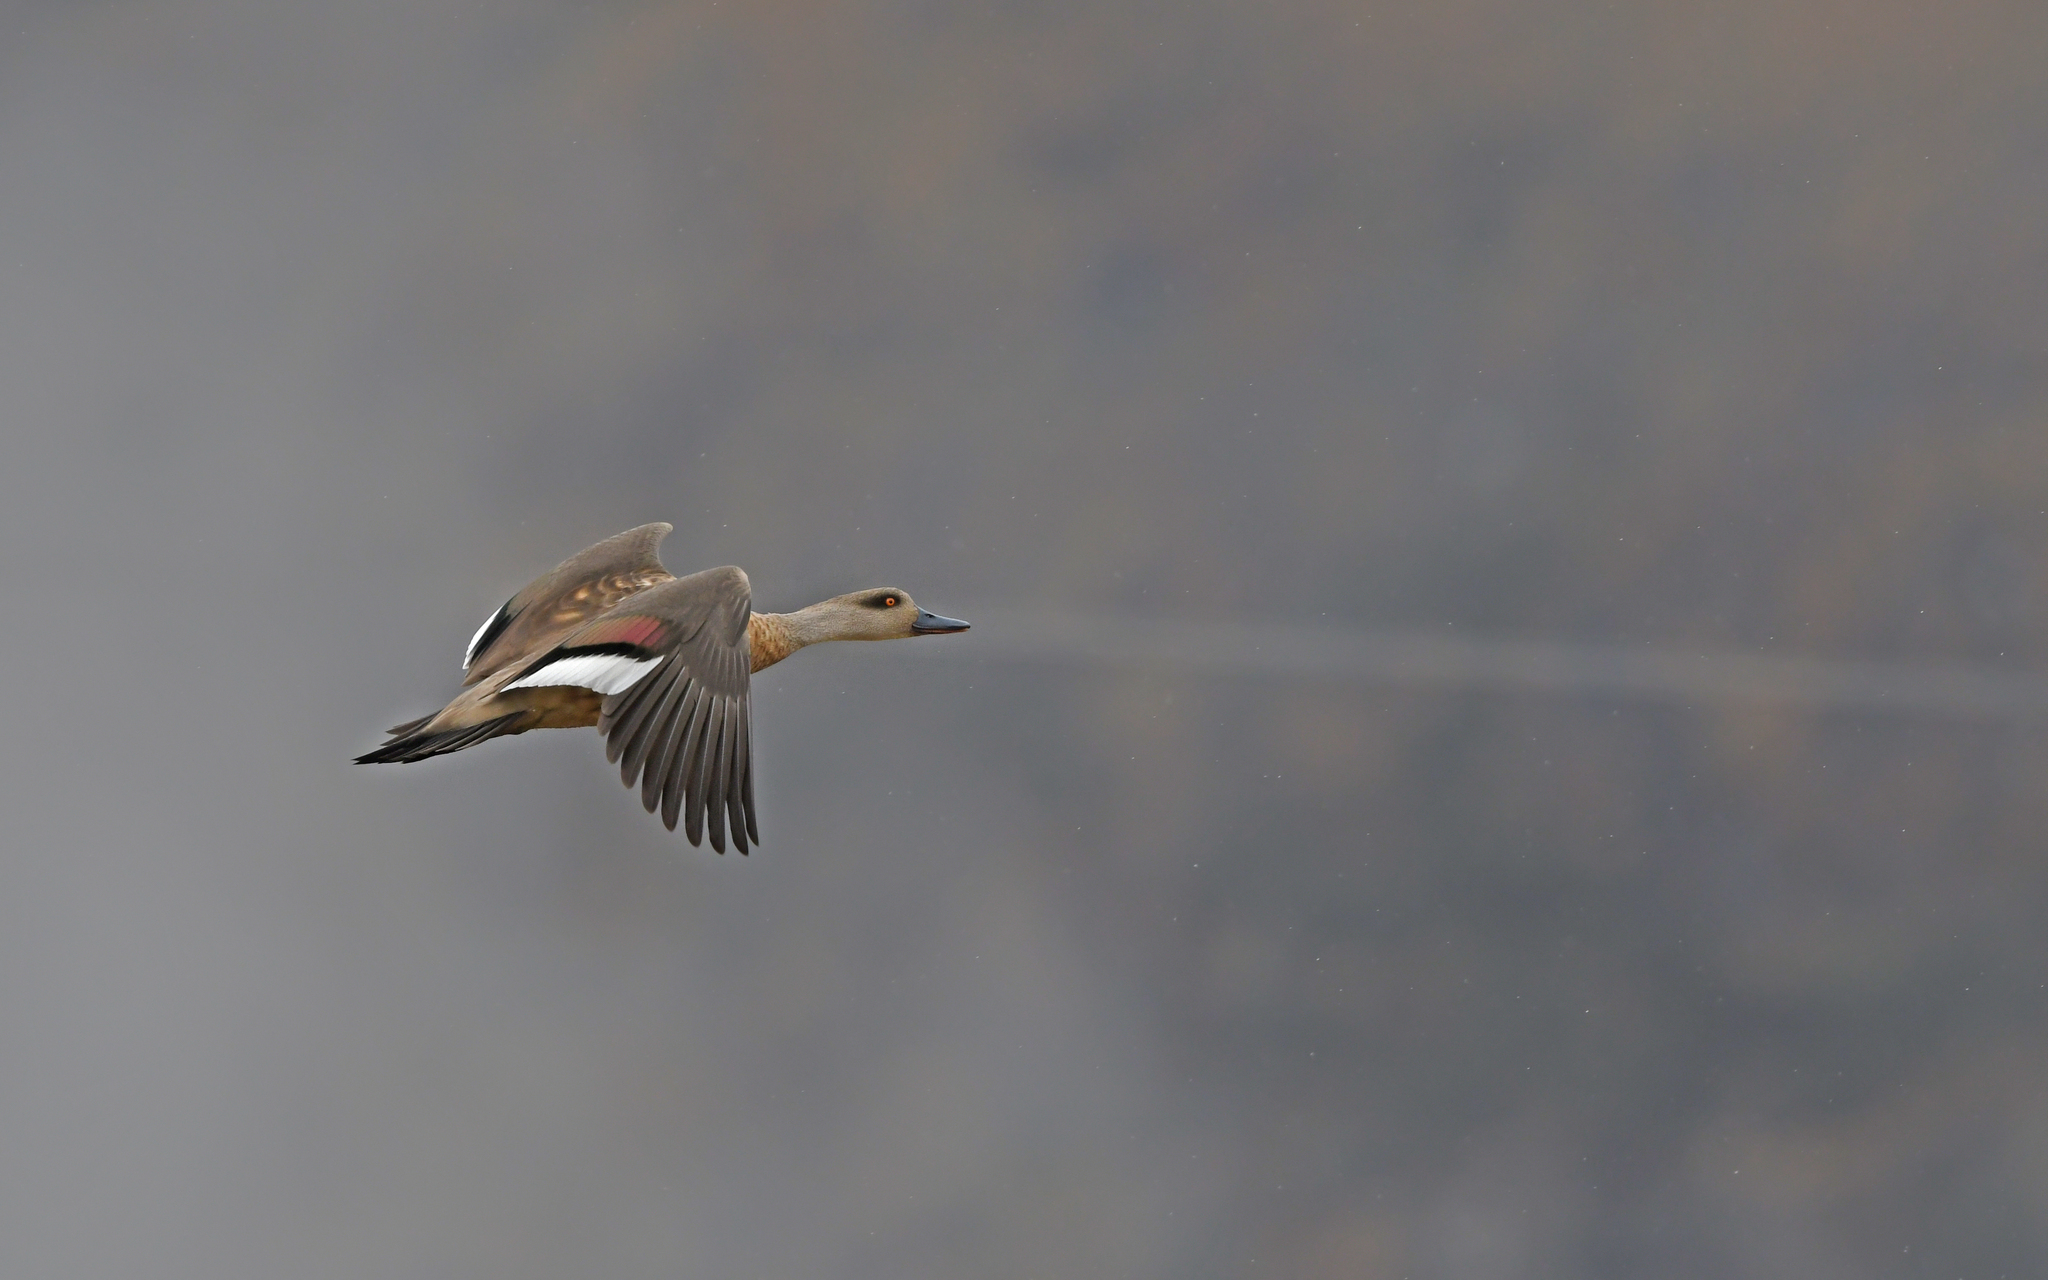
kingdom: Animalia
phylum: Chordata
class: Aves
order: Anseriformes
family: Anatidae
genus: Lophonetta
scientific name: Lophonetta specularioides
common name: Crested duck
